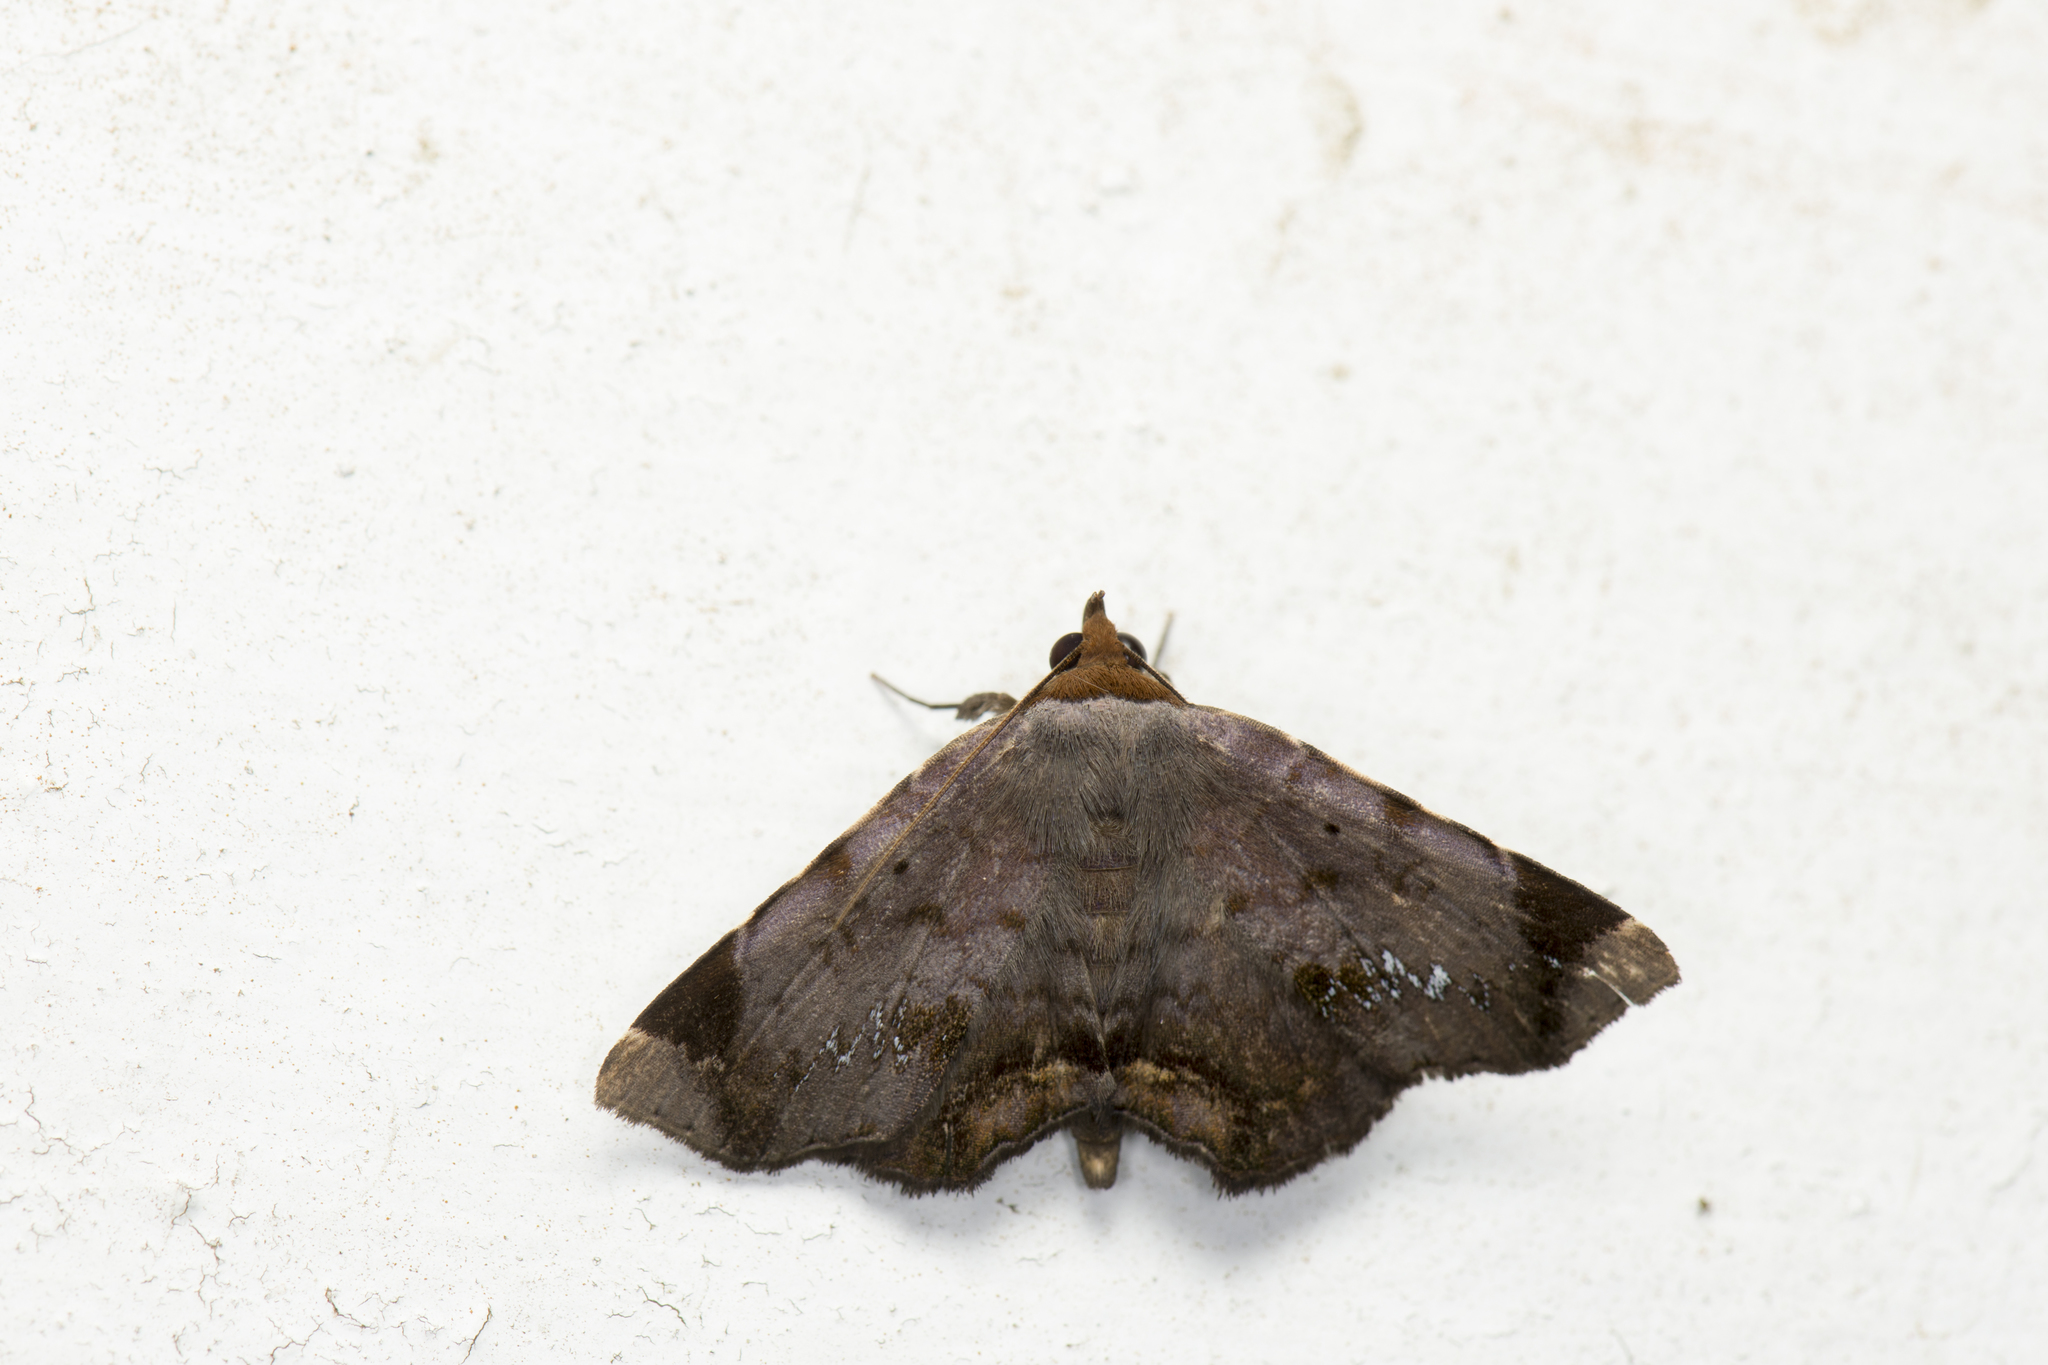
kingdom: Animalia
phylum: Arthropoda
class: Insecta
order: Lepidoptera
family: Erebidae
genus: Mecodina
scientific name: Mecodina albodentata
